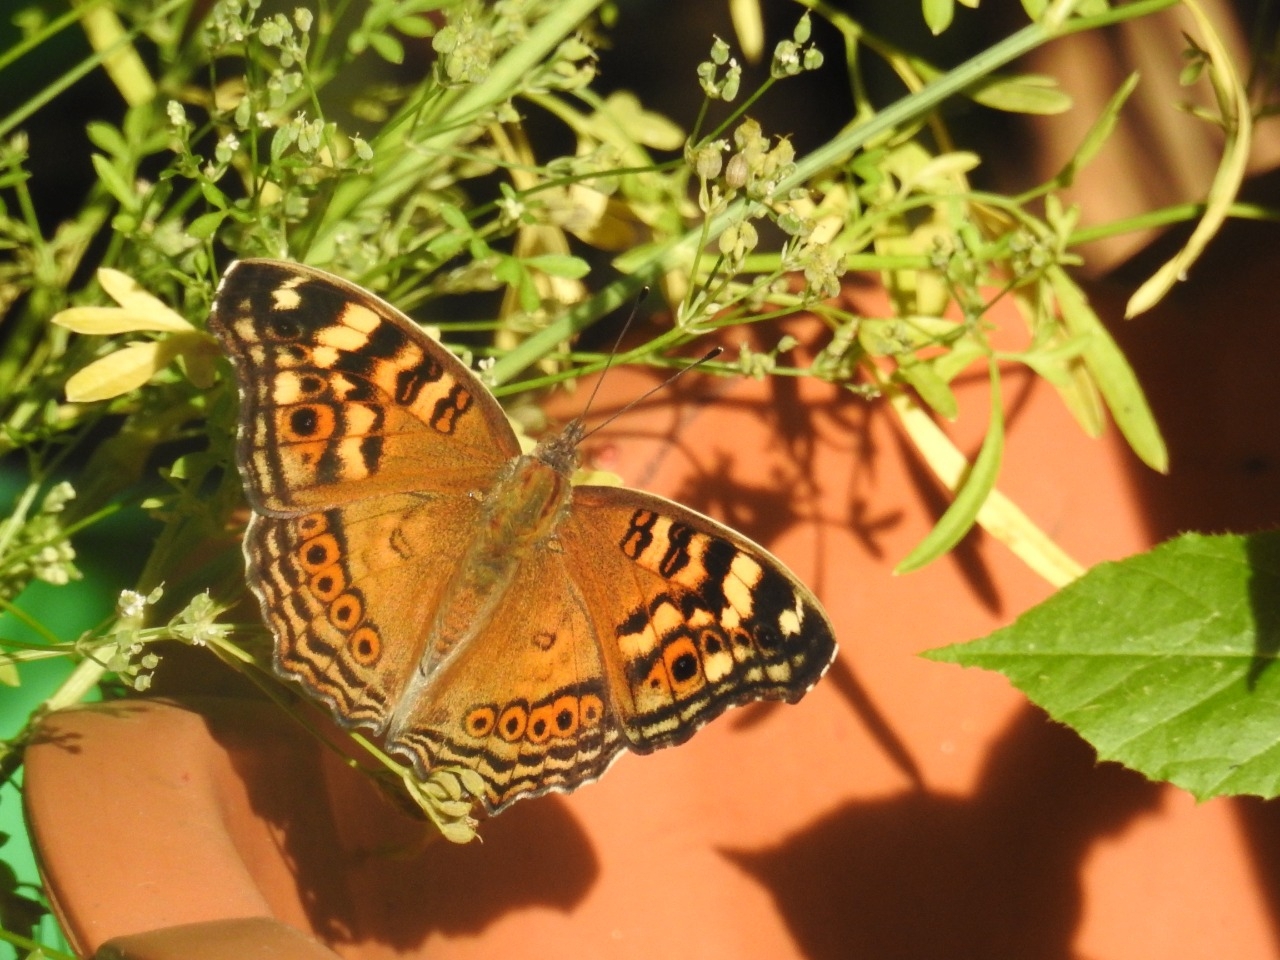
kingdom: Animalia
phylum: Arthropoda
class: Insecta
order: Lepidoptera
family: Nymphalidae
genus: Junonia
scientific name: Junonia erigone
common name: Northern argus
